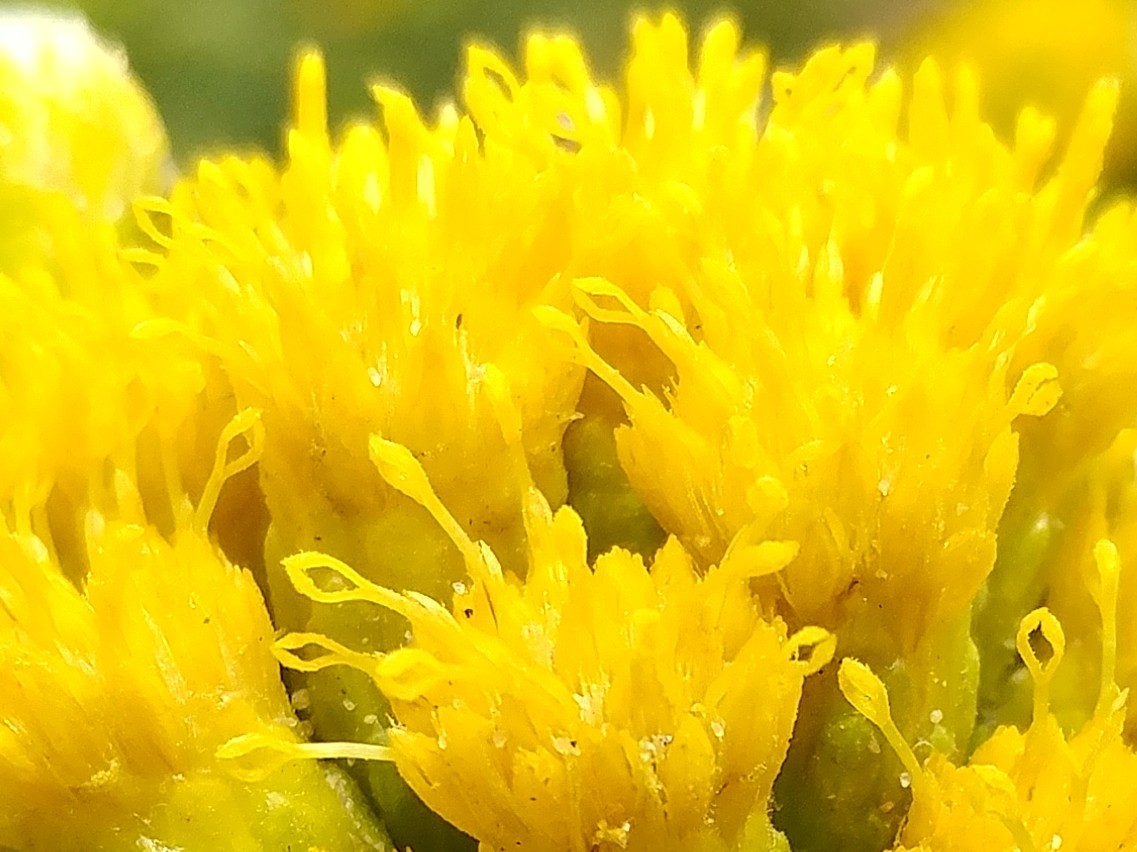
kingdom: Plantae
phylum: Tracheophyta
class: Magnoliopsida
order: Asterales
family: Asteraceae
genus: Isocoma
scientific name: Isocoma menziesii
